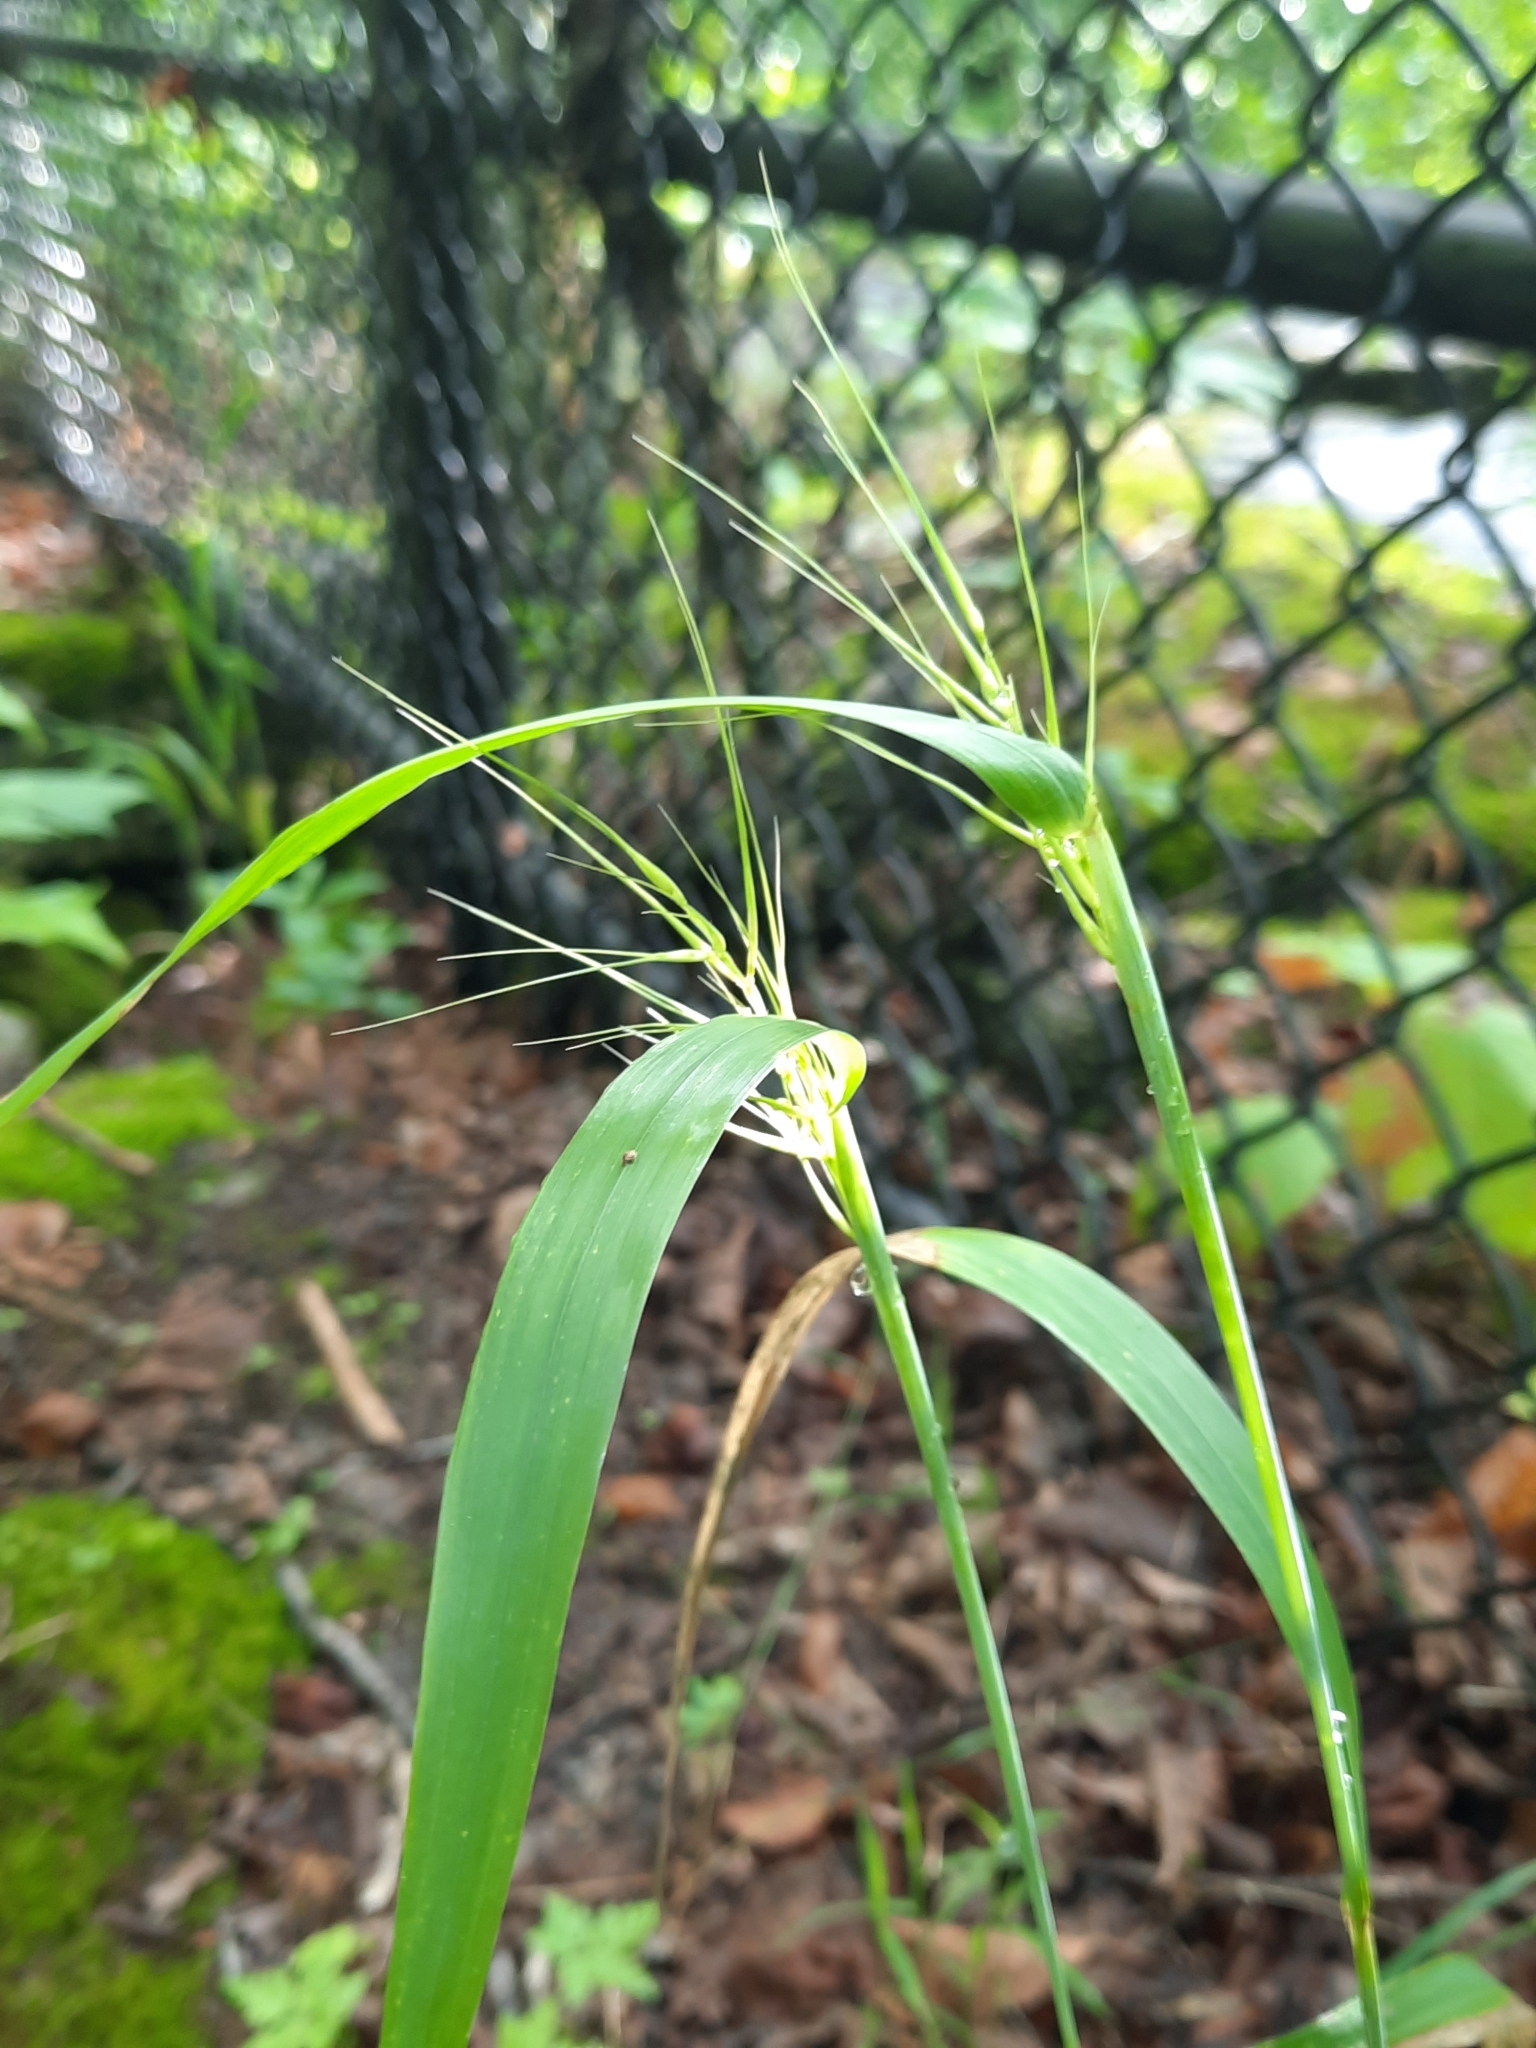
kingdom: Plantae
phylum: Tracheophyta
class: Liliopsida
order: Poales
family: Poaceae
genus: Elymus
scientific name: Elymus hystrix
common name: Bottlebrush grass
